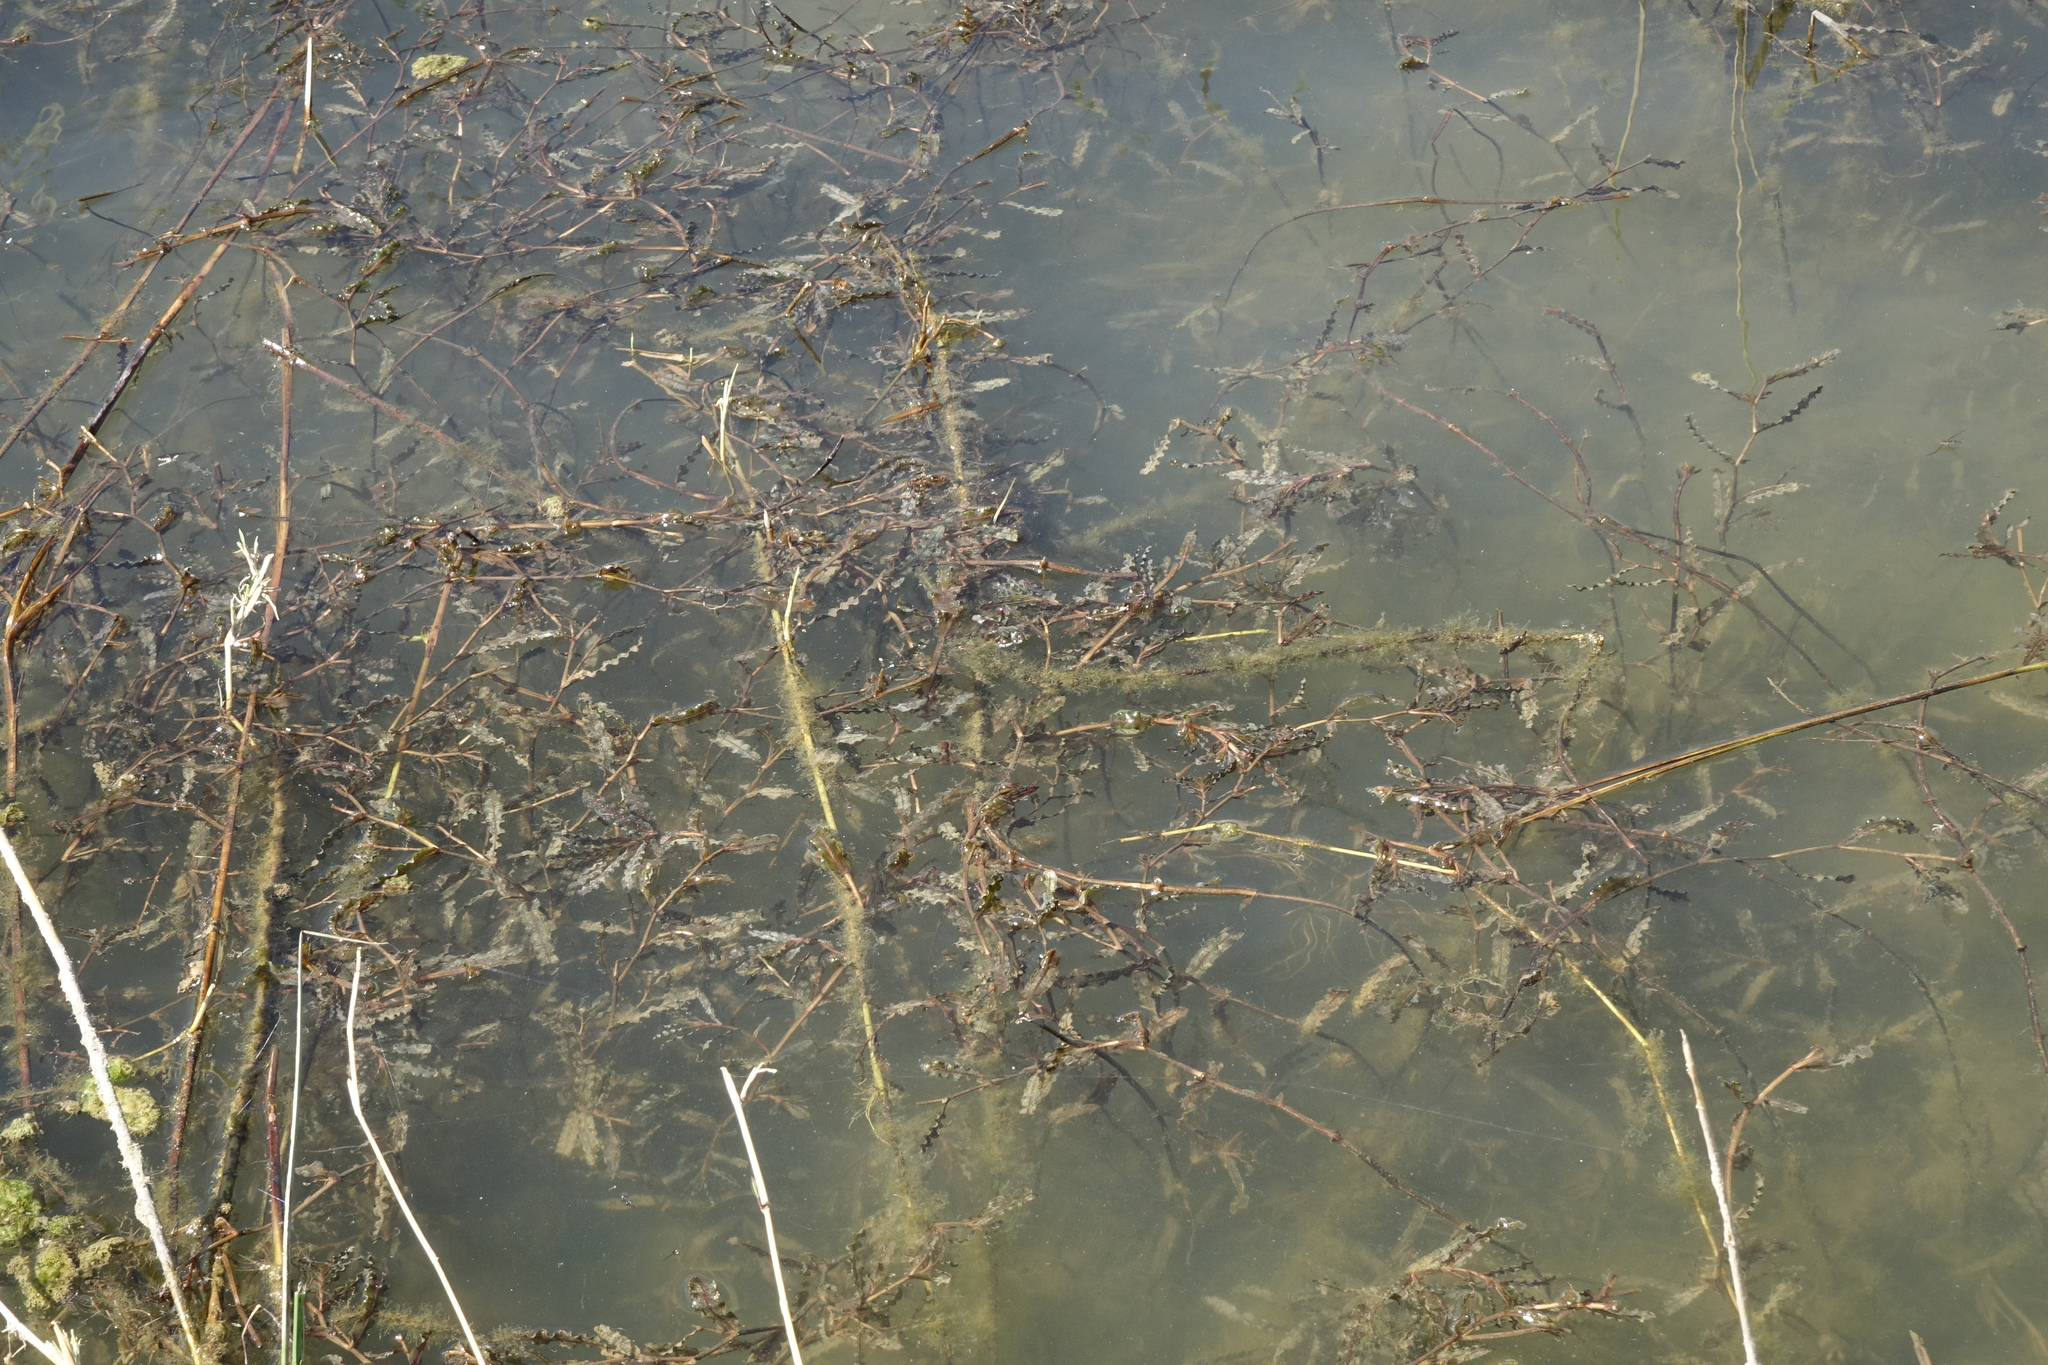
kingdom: Plantae
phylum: Tracheophyta
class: Liliopsida
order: Alismatales
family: Potamogetonaceae
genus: Potamogeton
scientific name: Potamogeton crispus
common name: Curled pondweed
